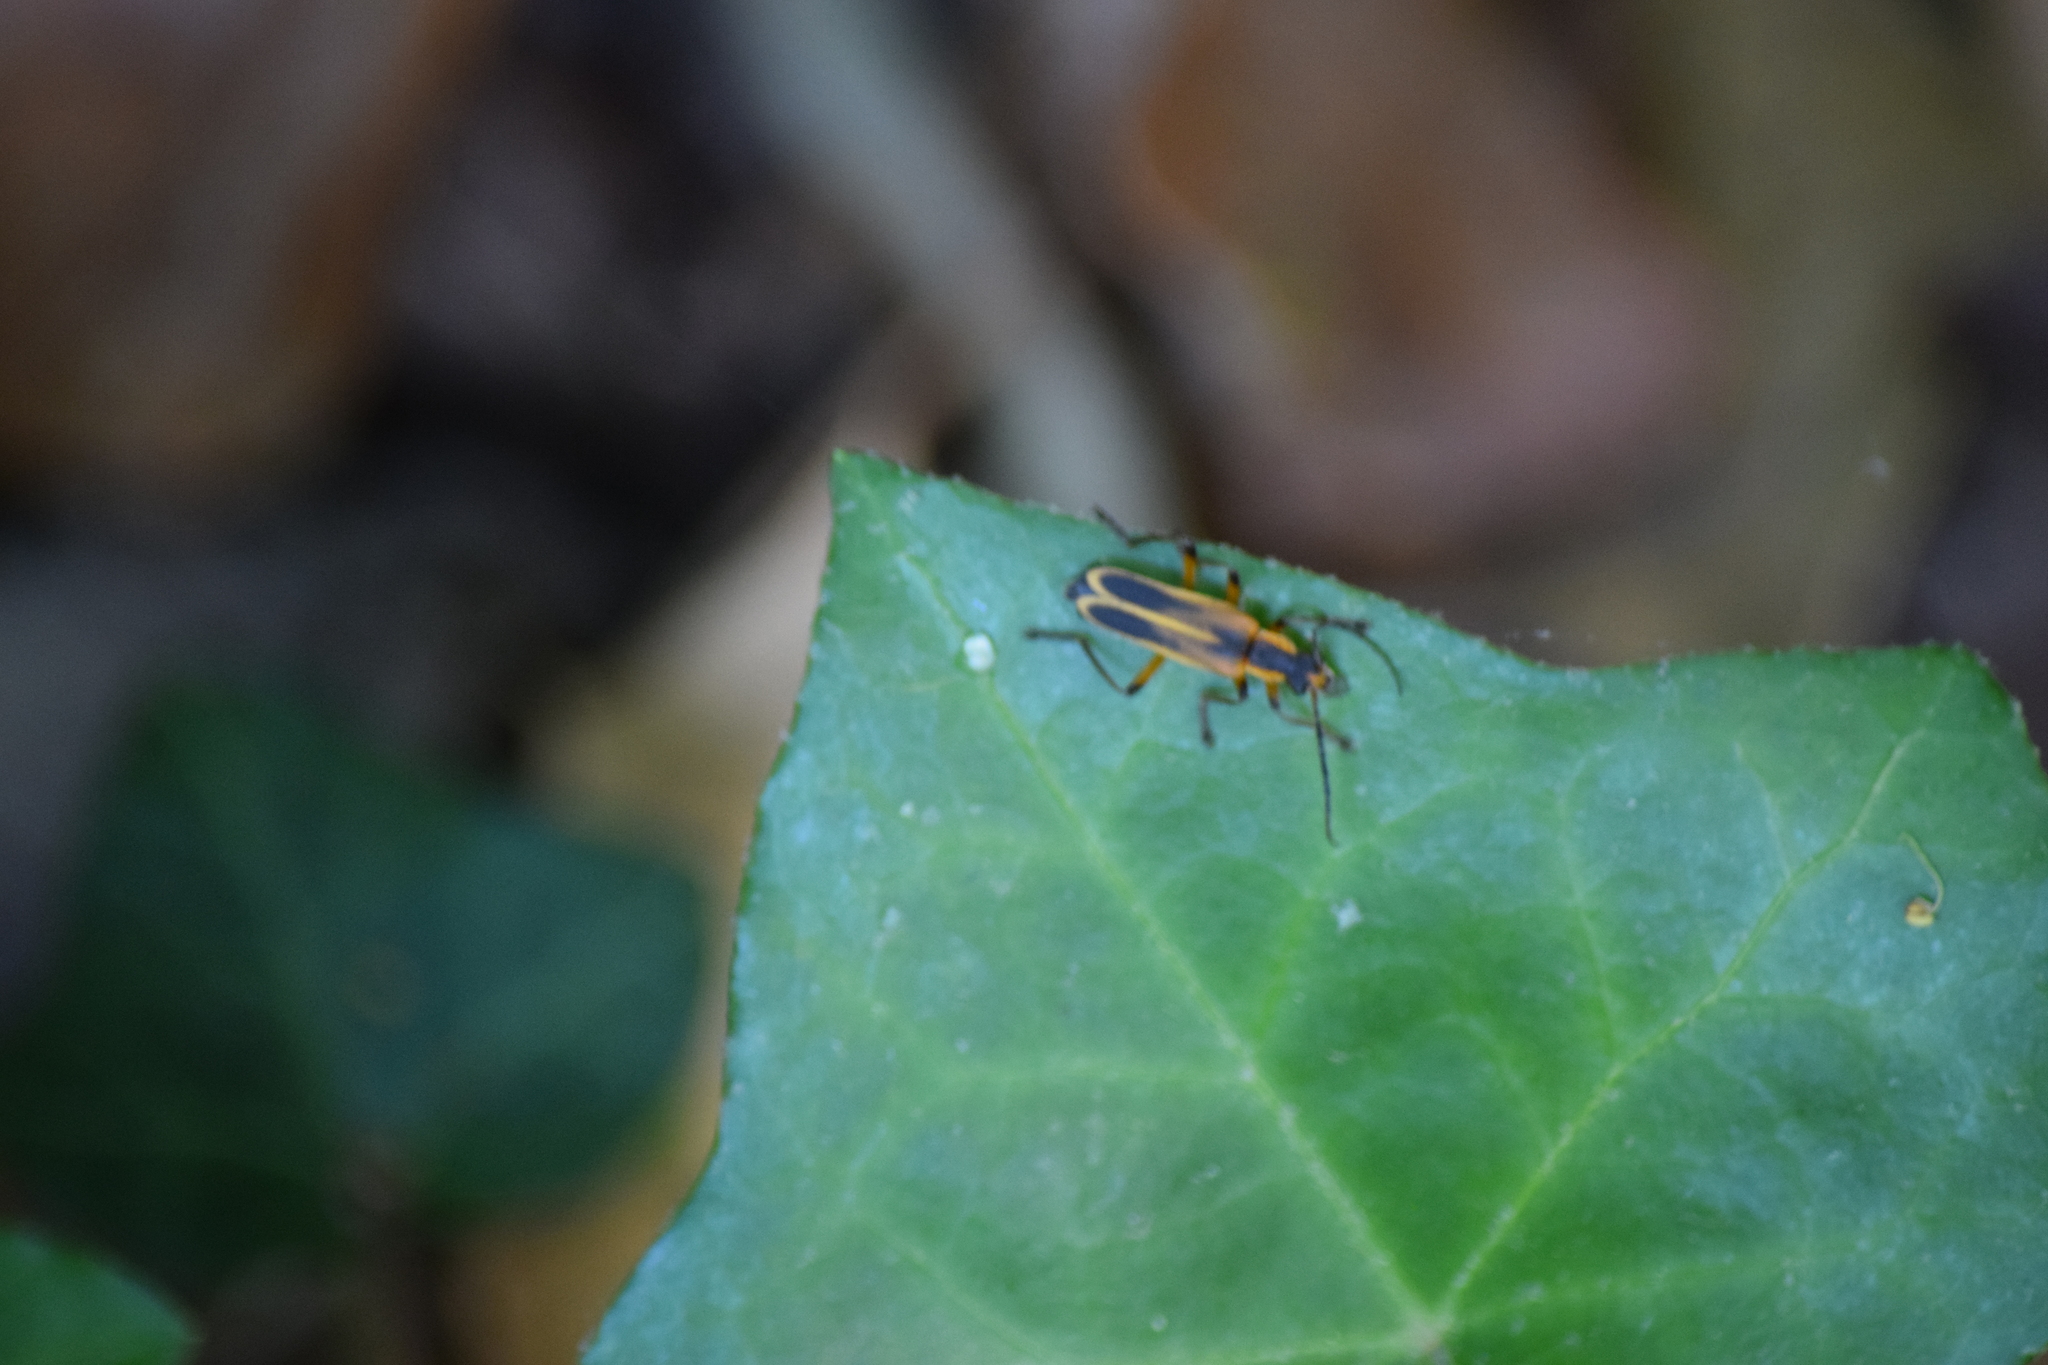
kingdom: Animalia
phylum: Arthropoda
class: Insecta
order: Coleoptera
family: Cantharidae
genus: Chauliognathus
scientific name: Chauliognathus marginatus
